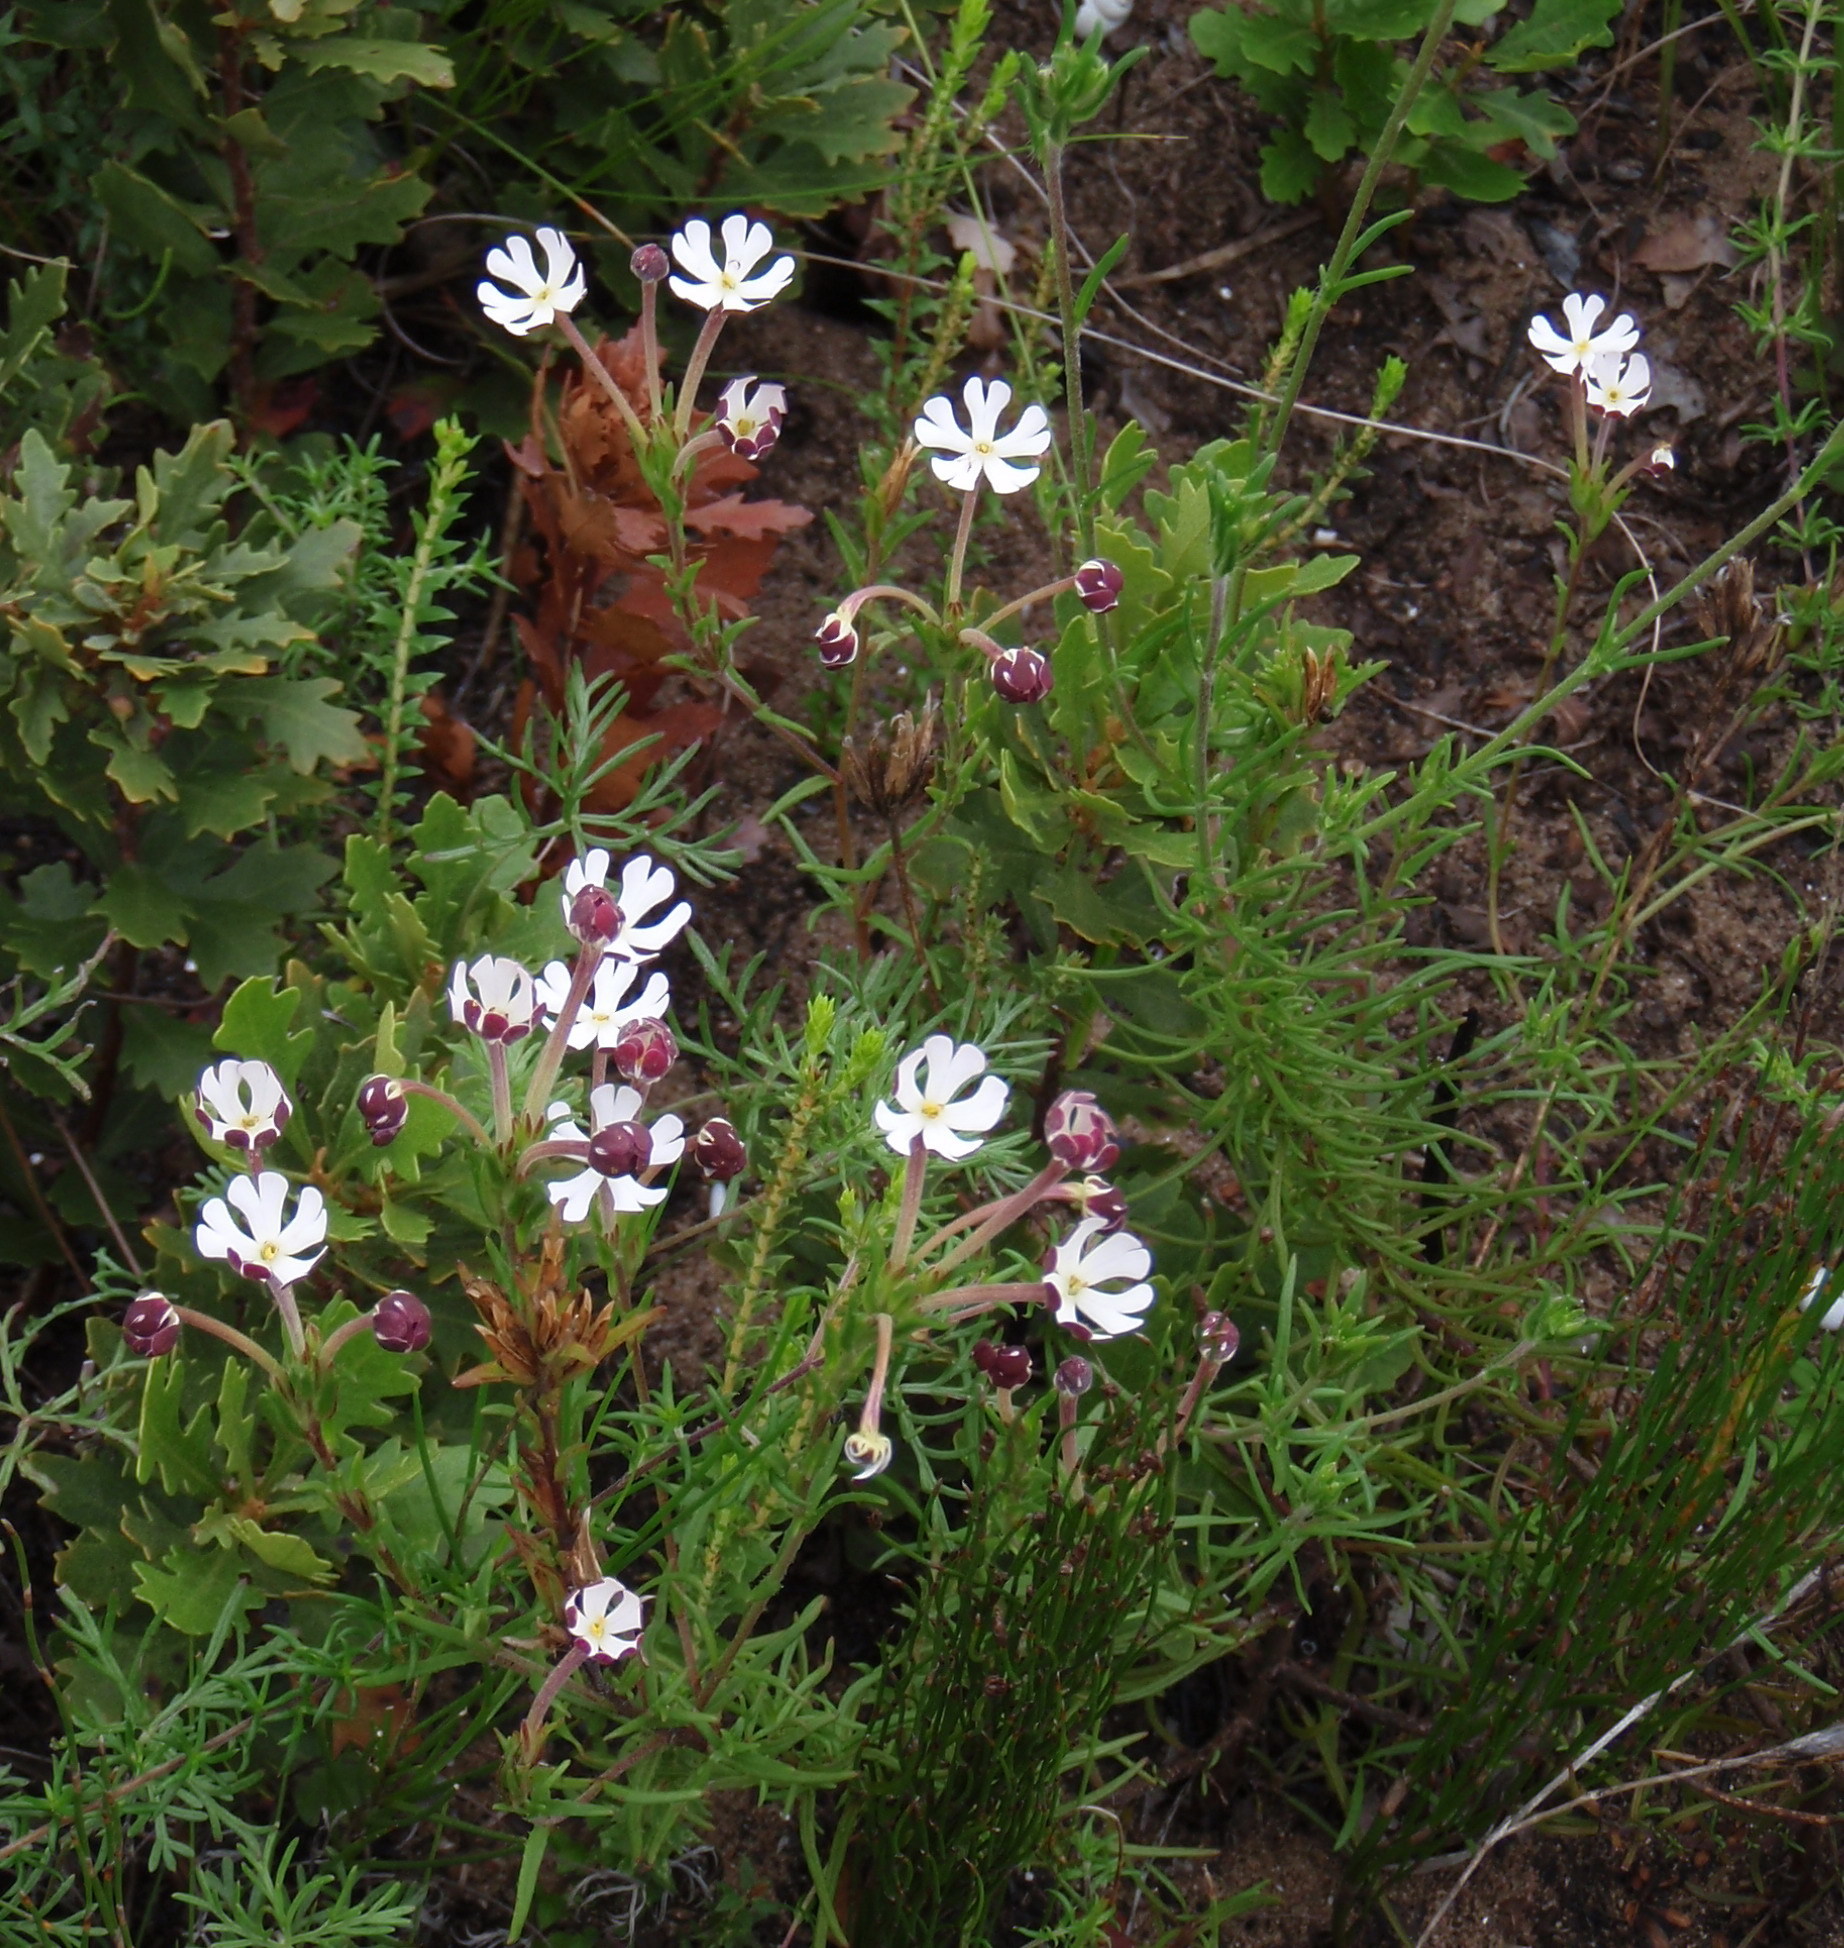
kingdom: Plantae
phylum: Tracheophyta
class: Magnoliopsida
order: Lamiales
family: Scrophulariaceae
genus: Zaluzianskya
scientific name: Zaluzianskya maritima
